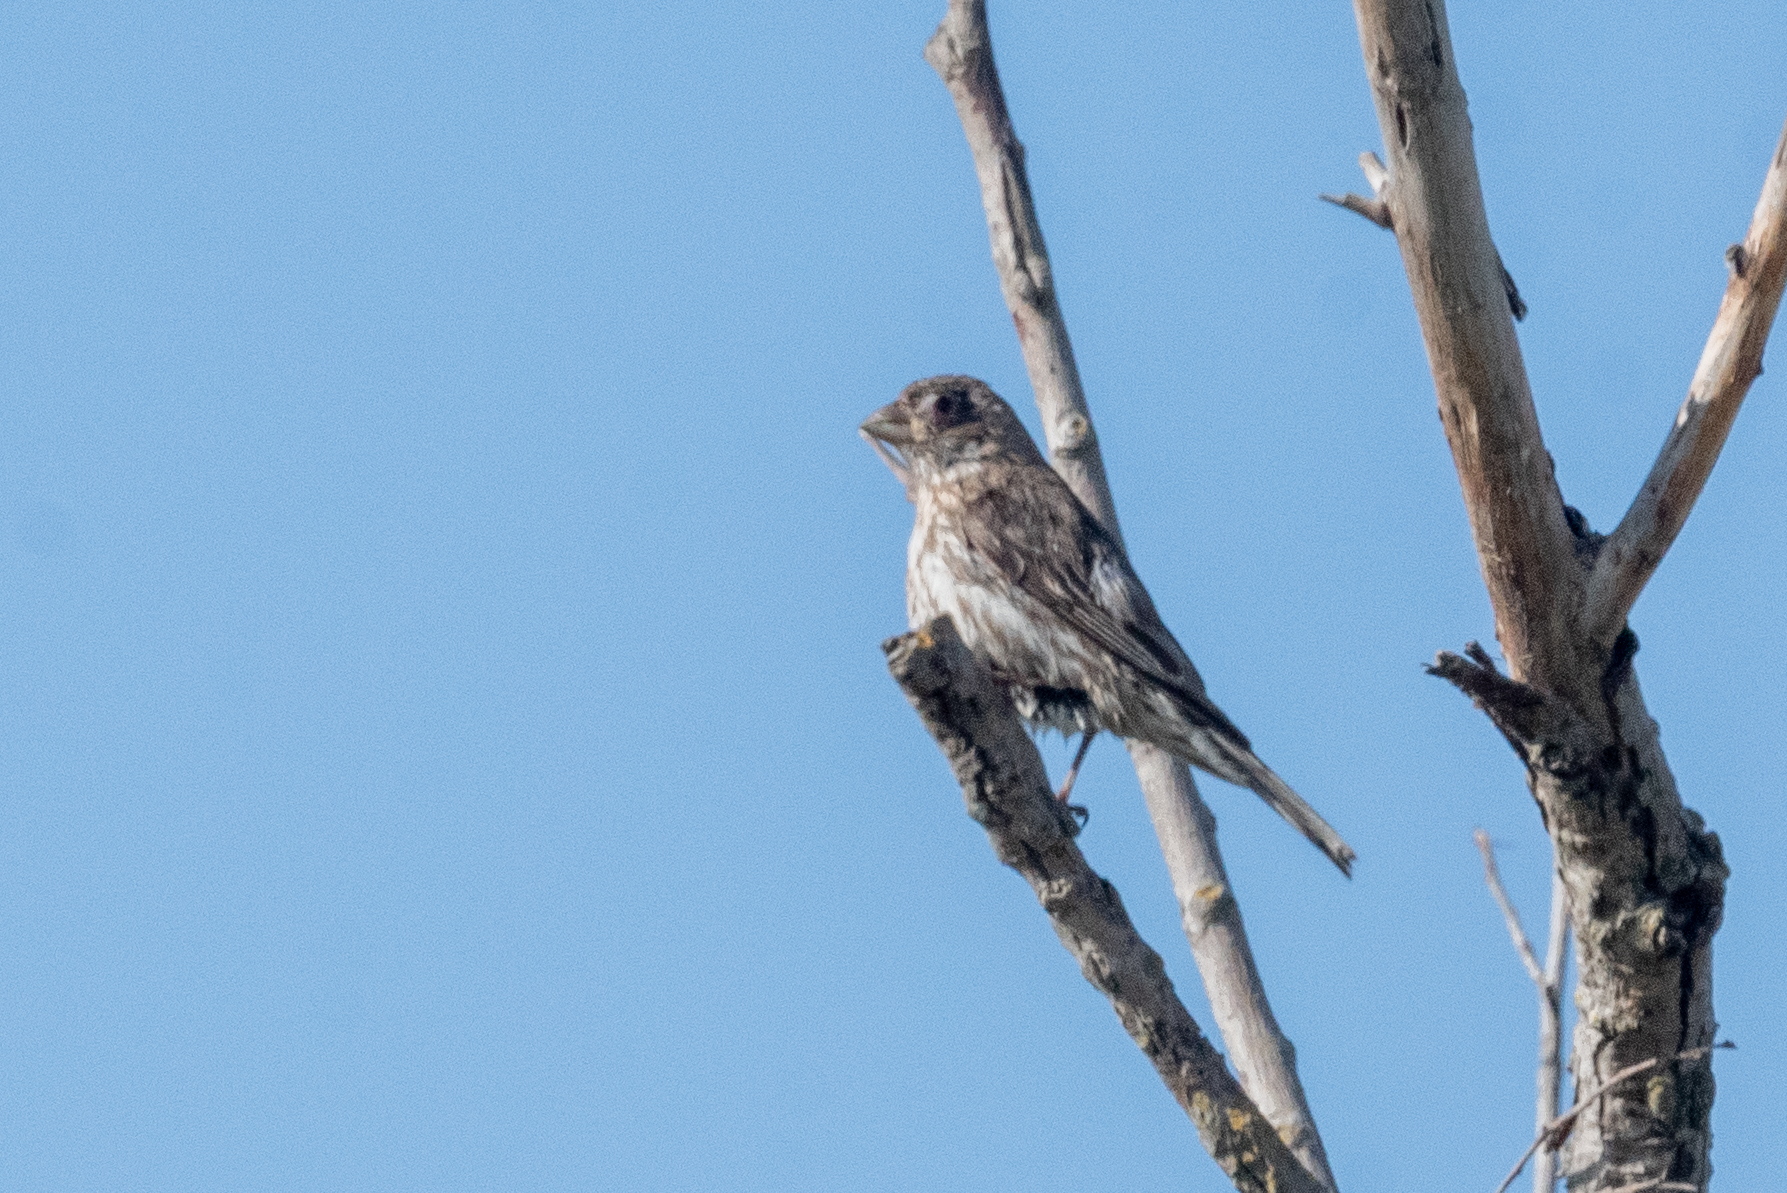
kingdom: Animalia
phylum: Chordata
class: Aves
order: Passeriformes
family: Fringillidae
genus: Haemorhous
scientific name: Haemorhous mexicanus
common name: House finch
